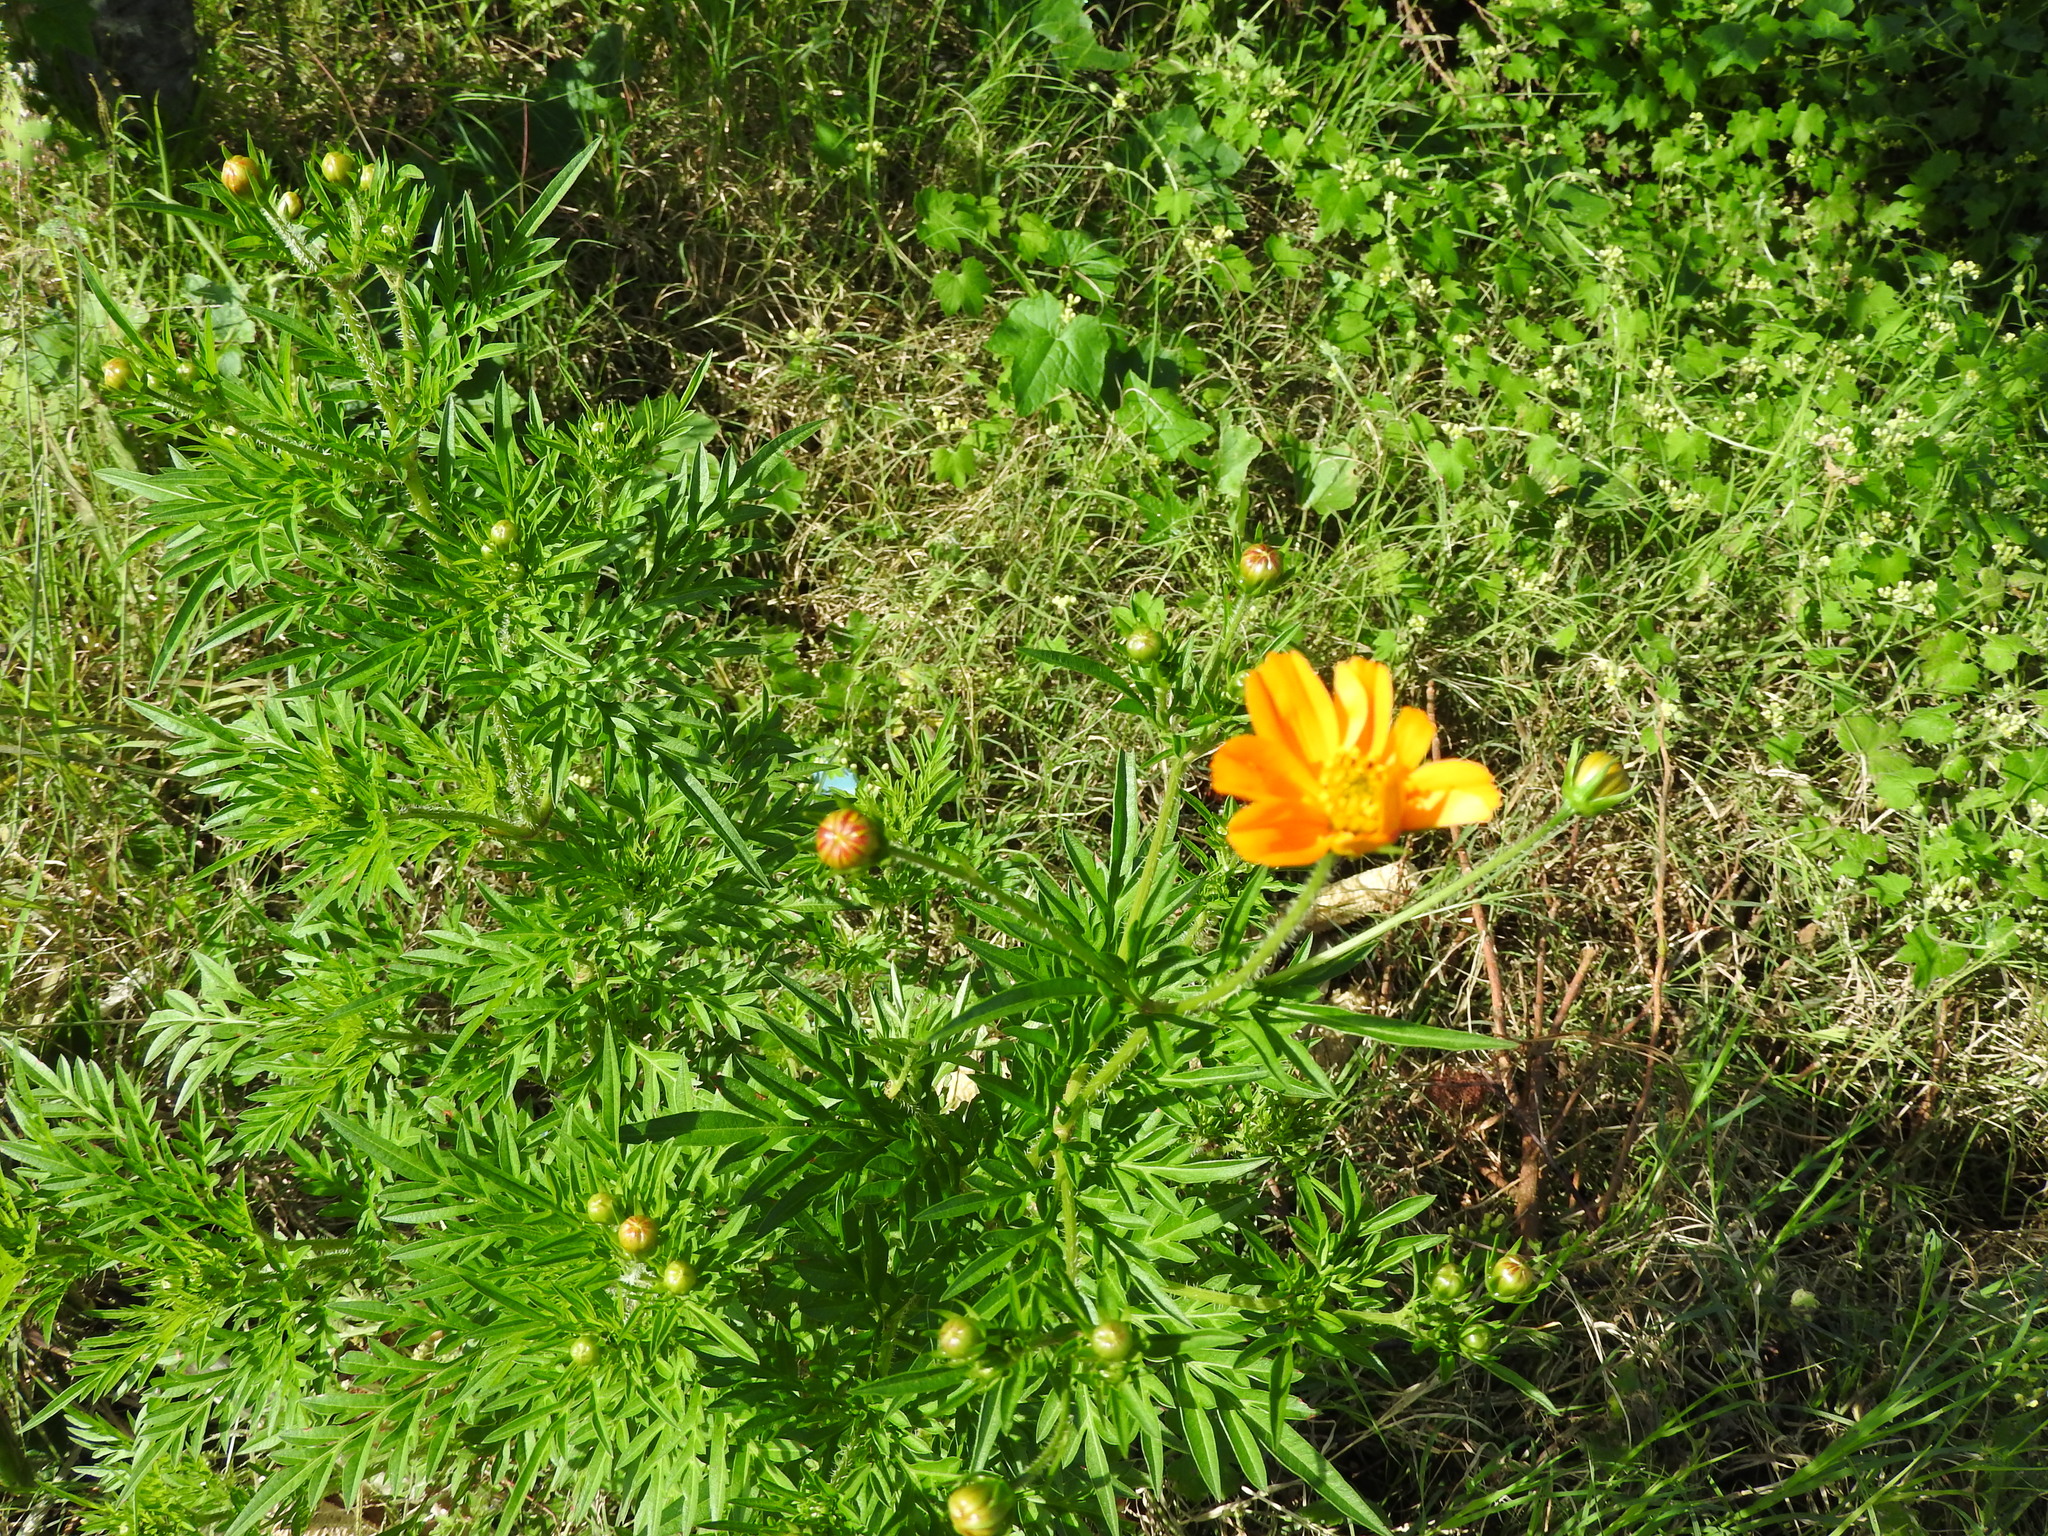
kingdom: Plantae
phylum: Tracheophyta
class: Magnoliopsida
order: Asterales
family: Asteraceae
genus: Cosmos
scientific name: Cosmos sulphureus
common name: Sulphur cosmos
